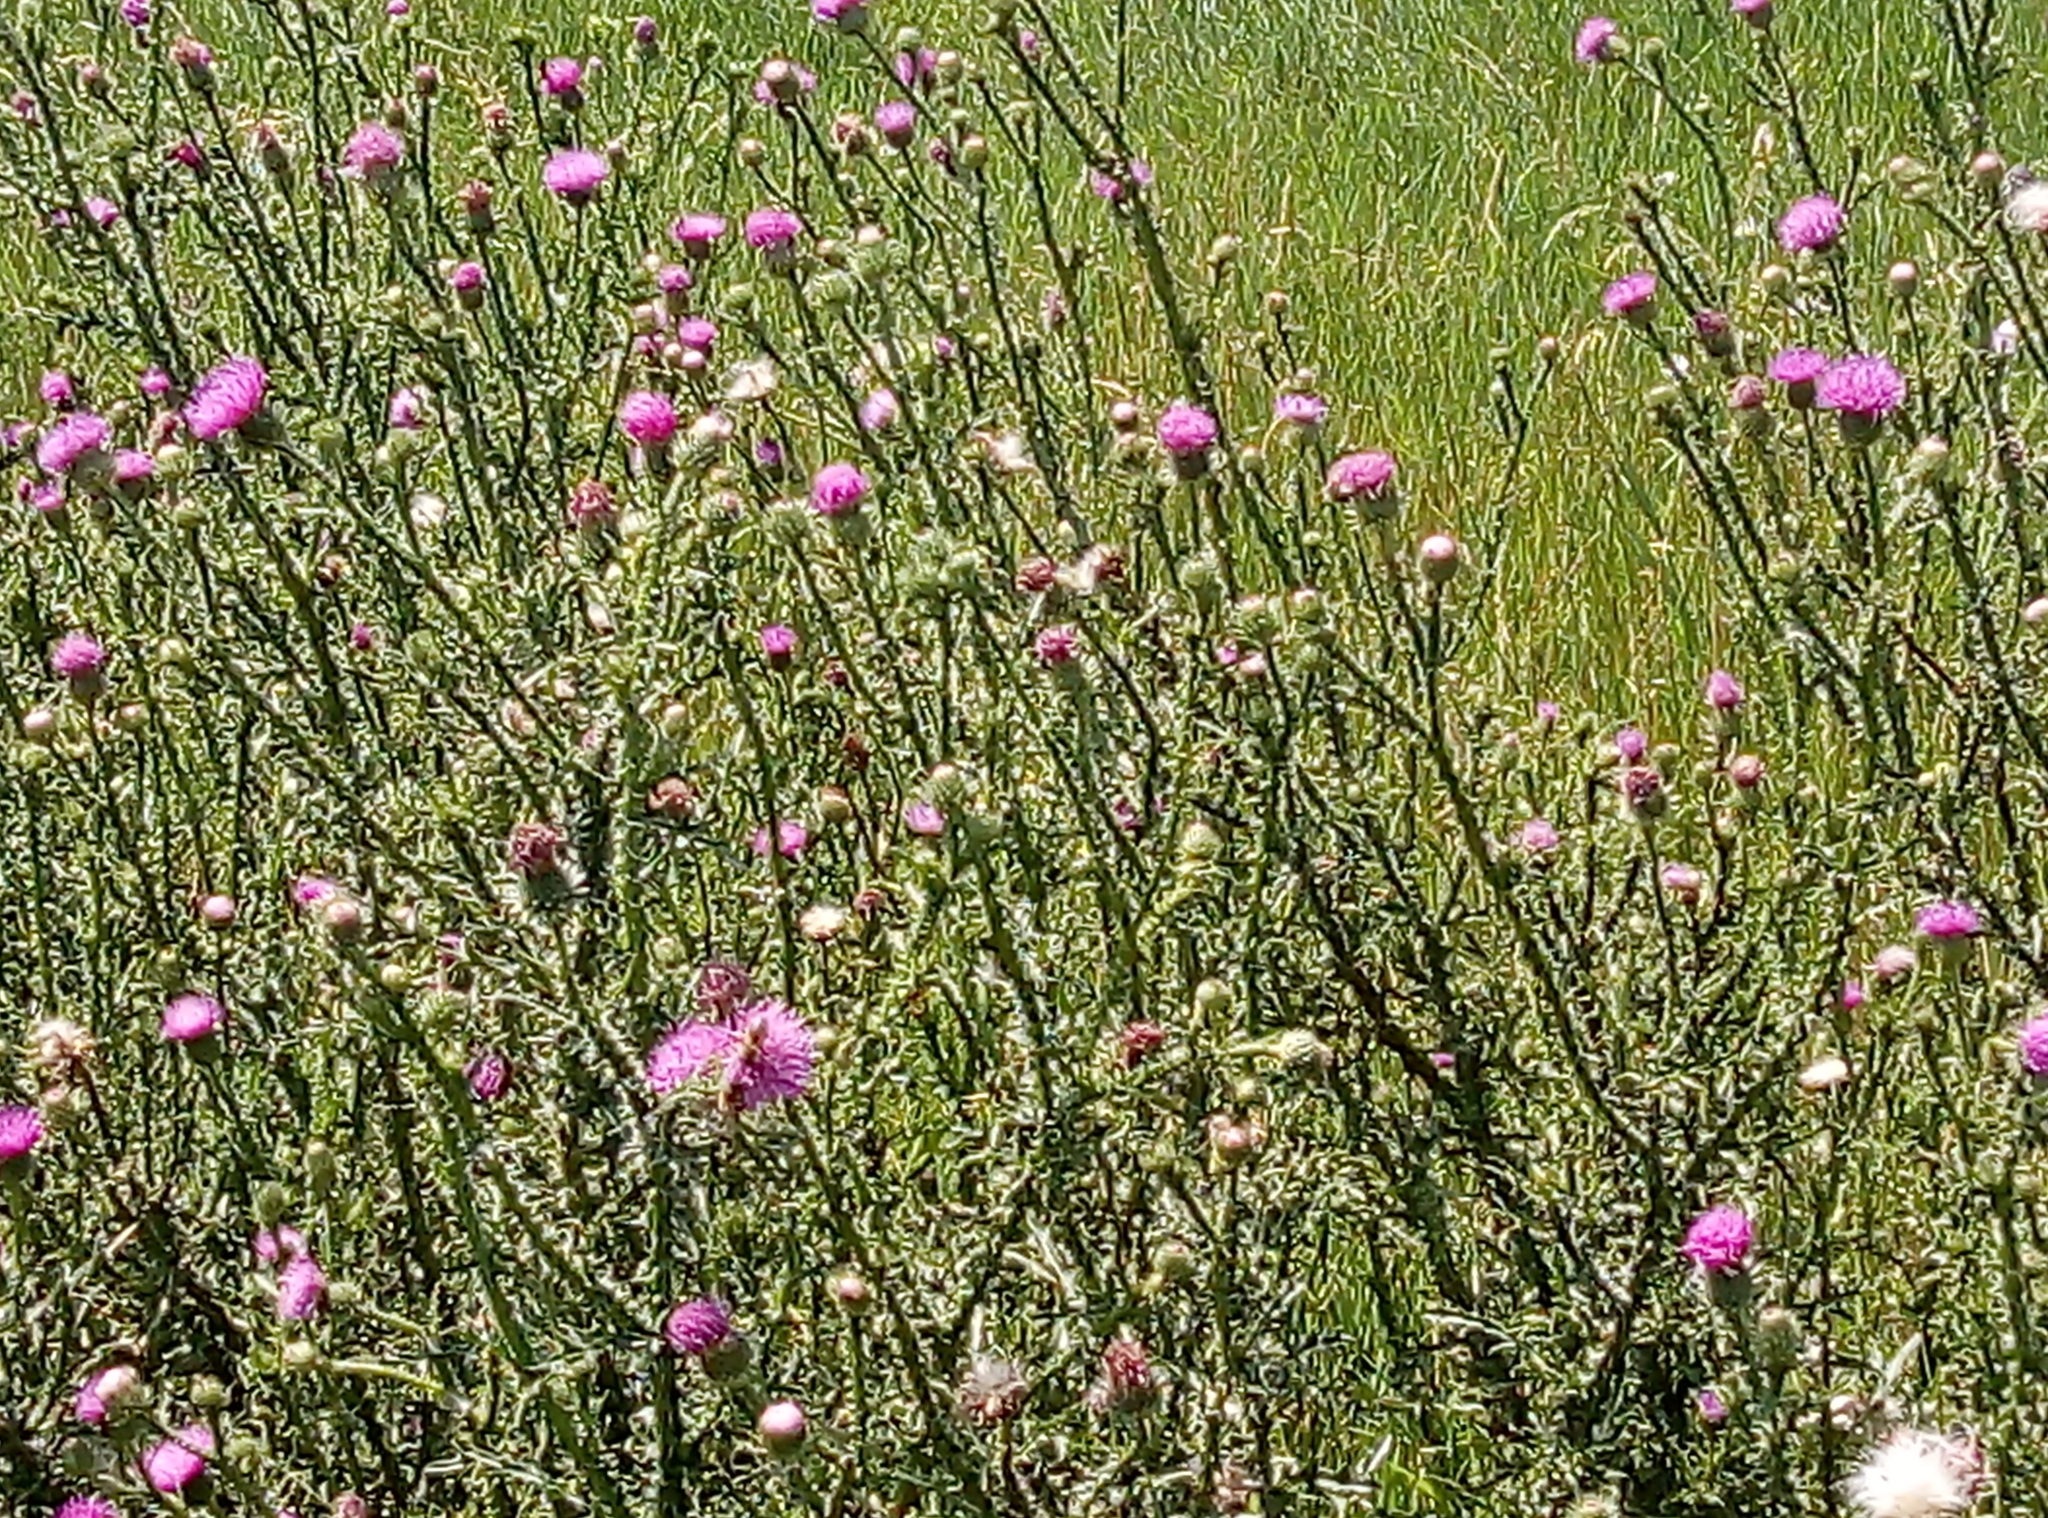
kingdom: Plantae
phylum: Tracheophyta
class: Magnoliopsida
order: Asterales
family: Asteraceae
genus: Carduus
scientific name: Carduus acanthoides
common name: Plumeless thistle
